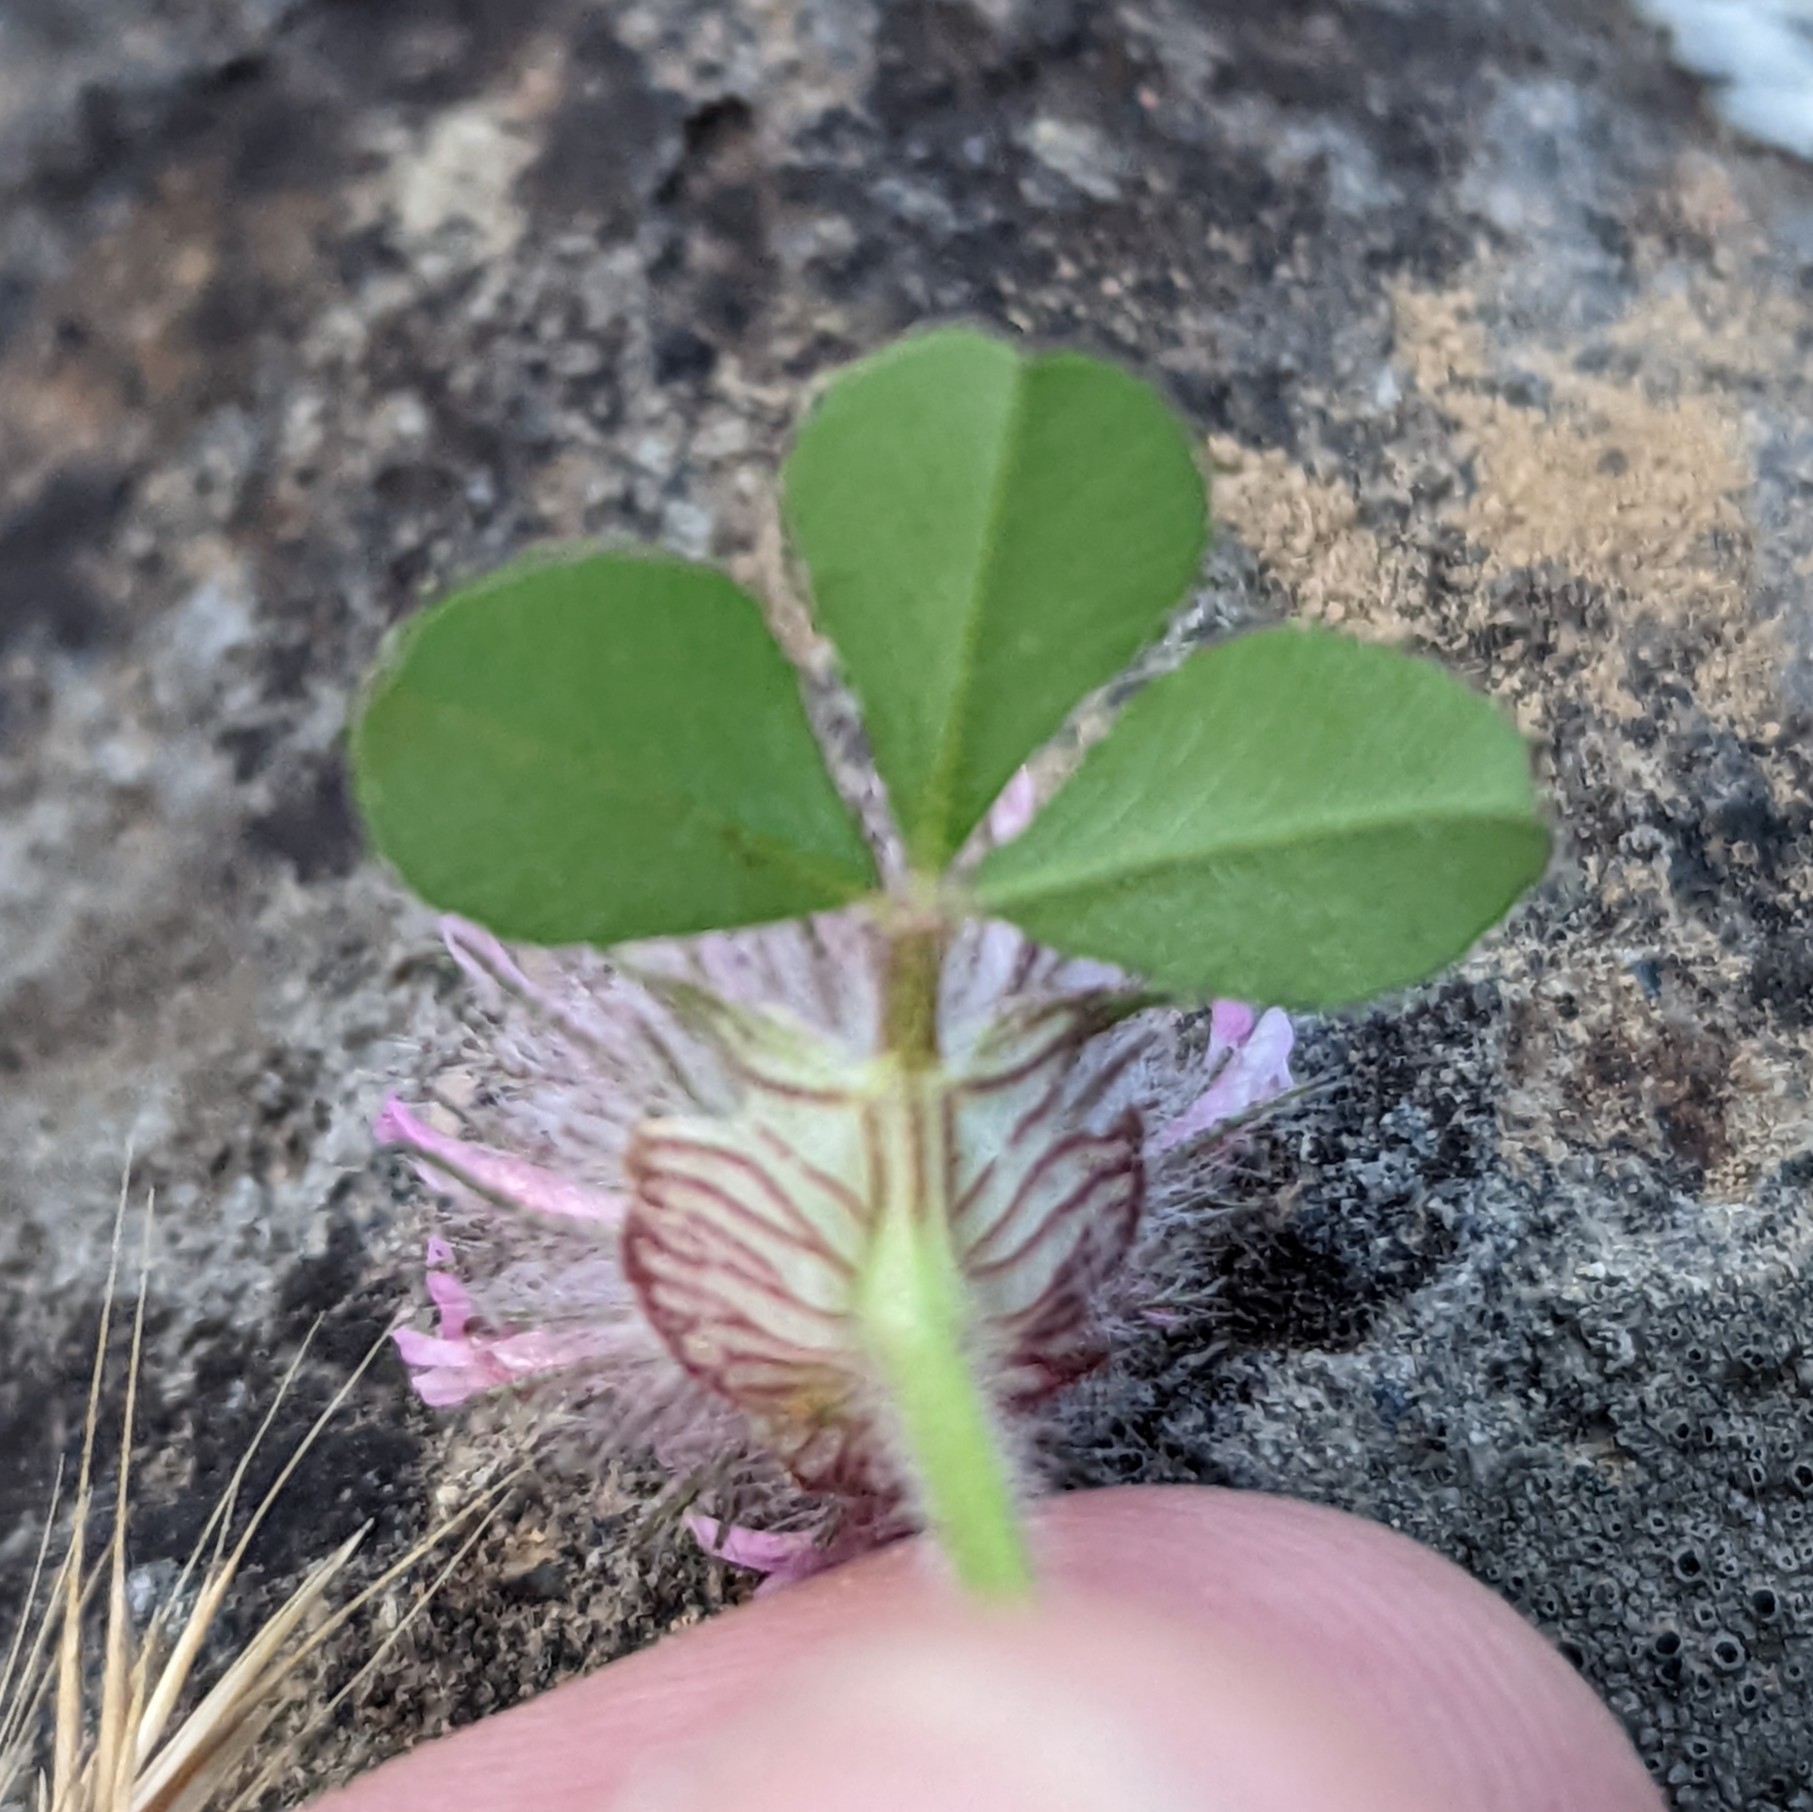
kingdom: Plantae
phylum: Tracheophyta
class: Magnoliopsida
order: Fabales
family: Fabaceae
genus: Trifolium
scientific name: Trifolium hirtum
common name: Rose clover
